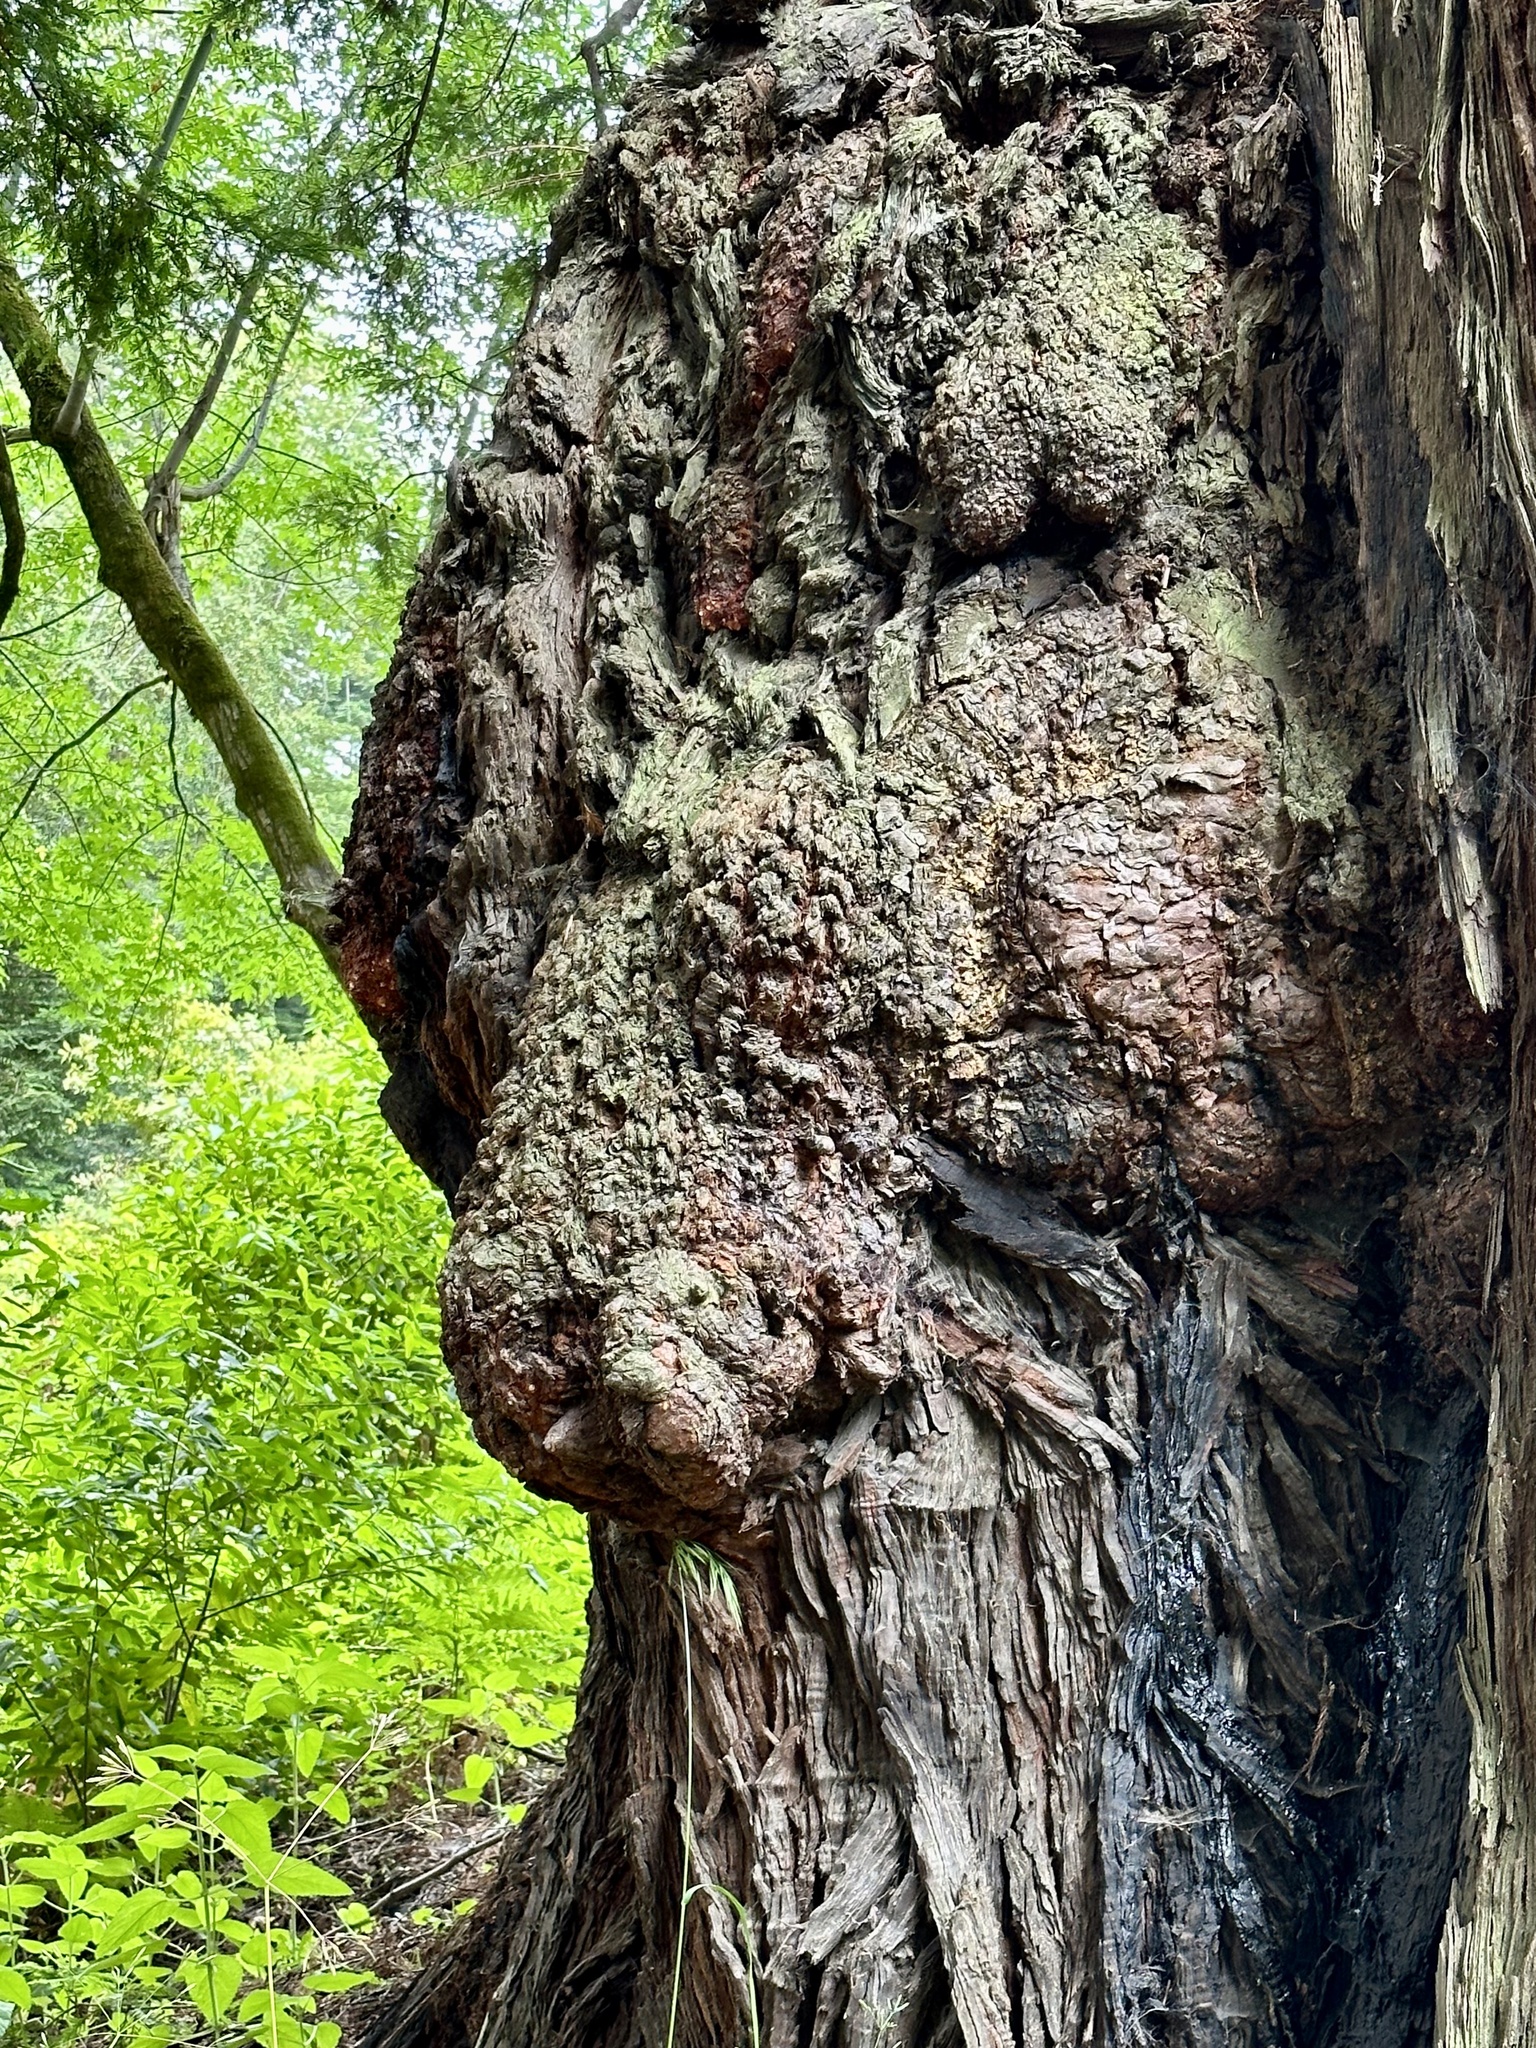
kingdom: Plantae
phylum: Tracheophyta
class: Pinopsida
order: Pinales
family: Cupressaceae
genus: Sequoia
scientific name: Sequoia sempervirens
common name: Coast redwood
